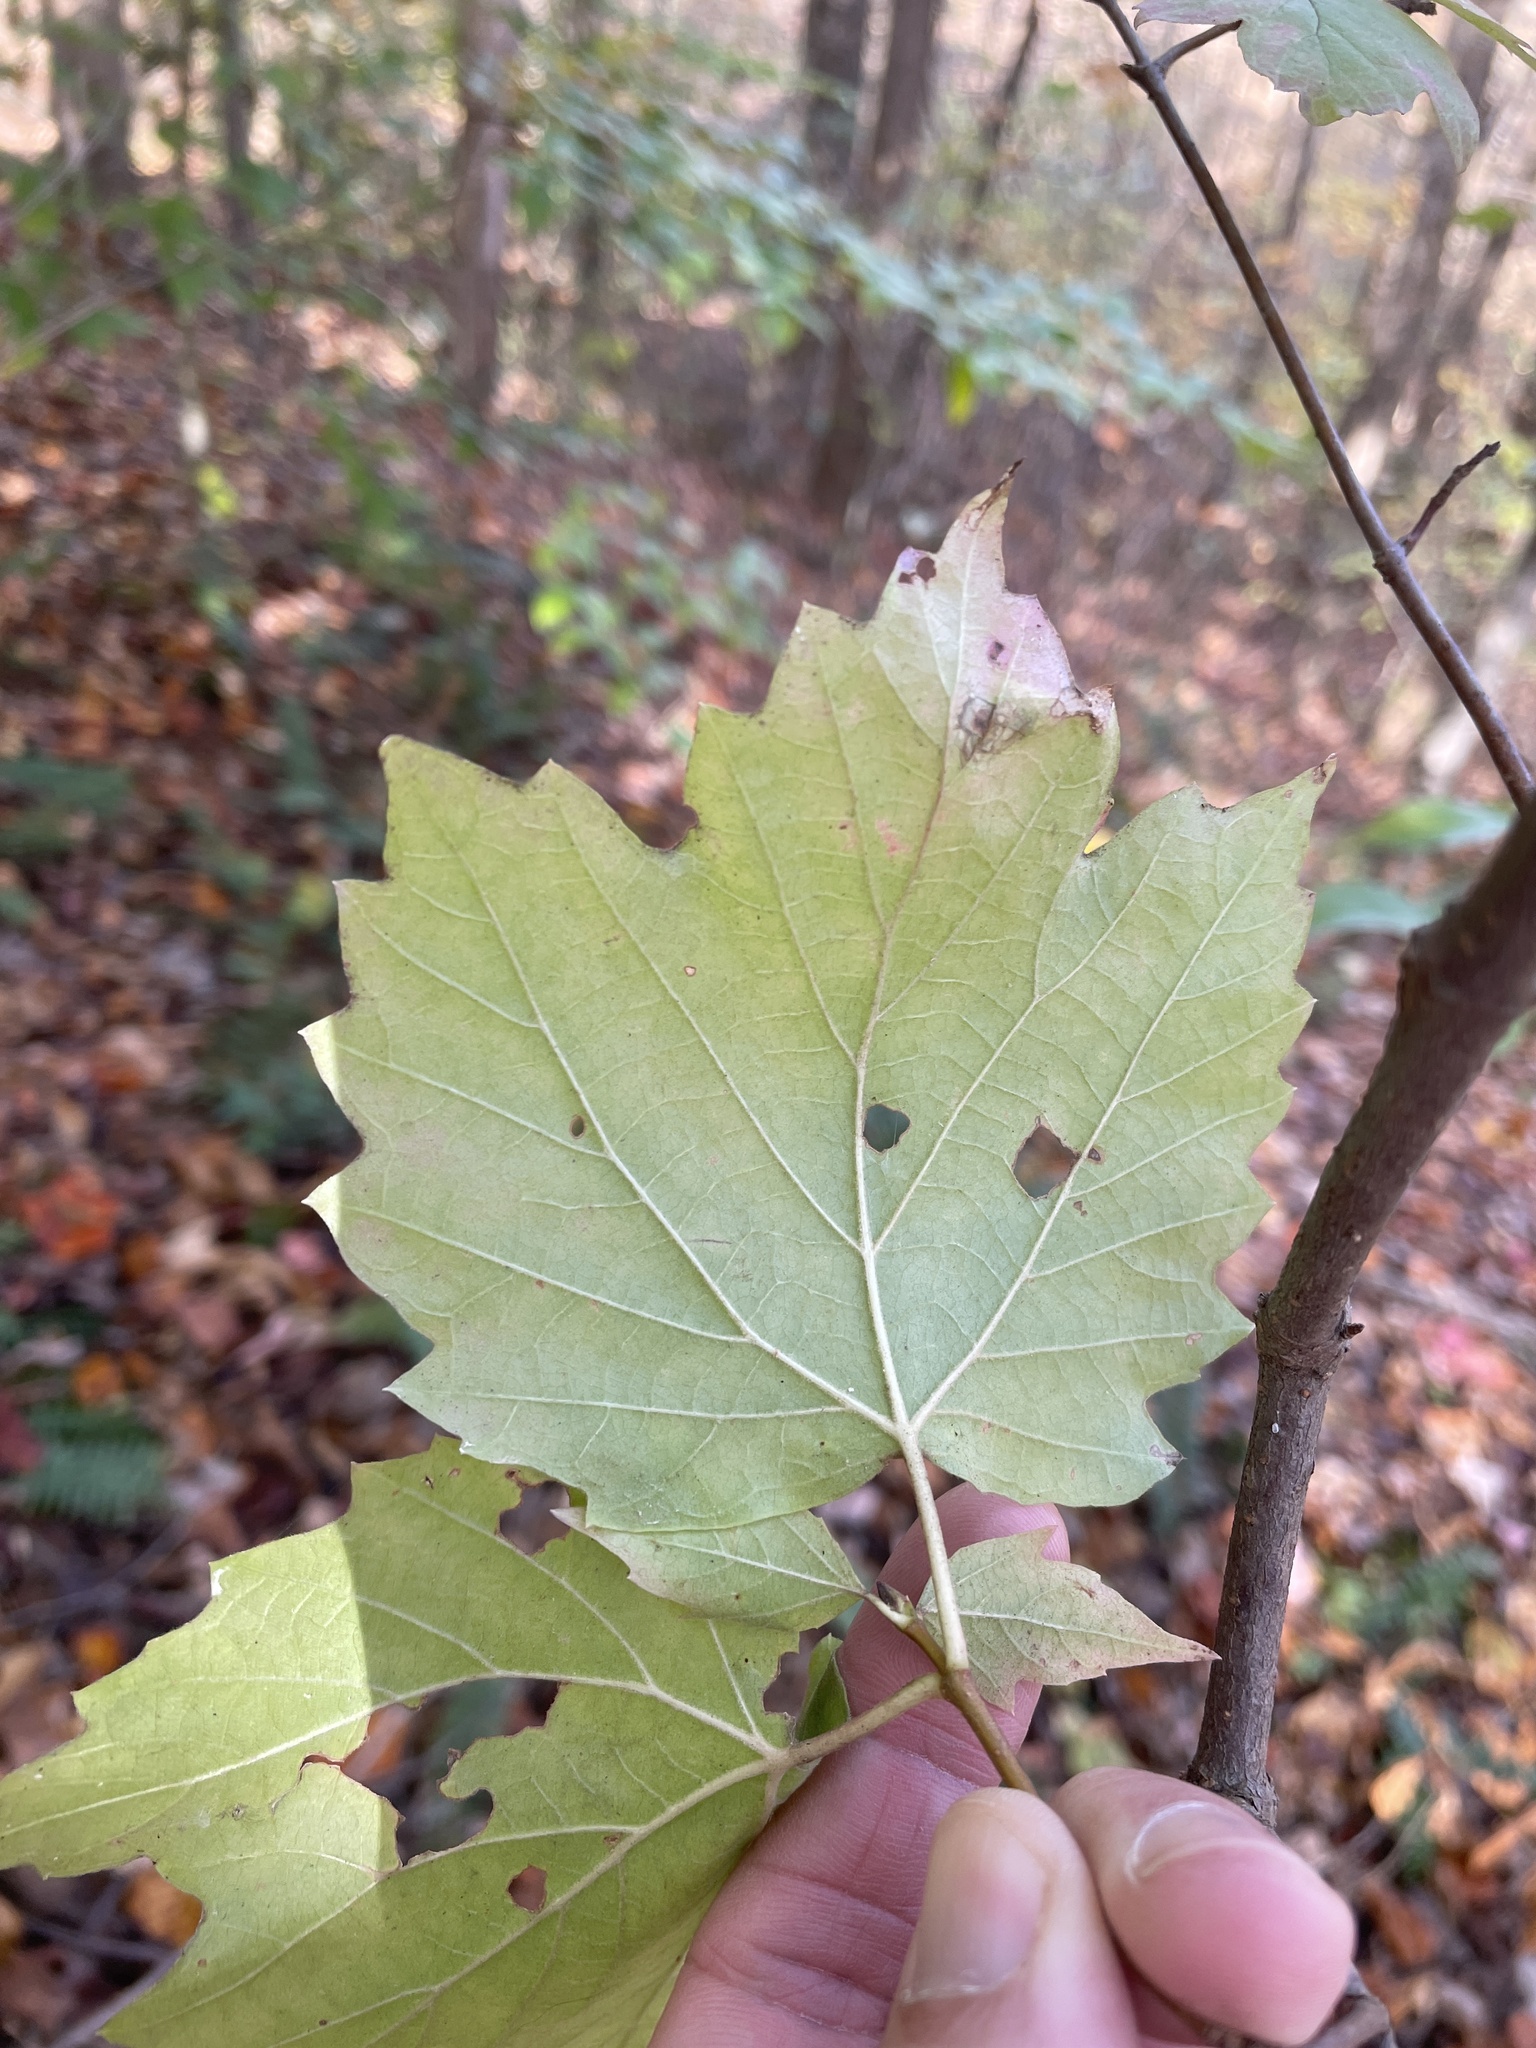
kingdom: Plantae
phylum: Tracheophyta
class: Magnoliopsida
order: Dipsacales
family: Viburnaceae
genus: Viburnum
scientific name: Viburnum acerifolium
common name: Dockmackie
